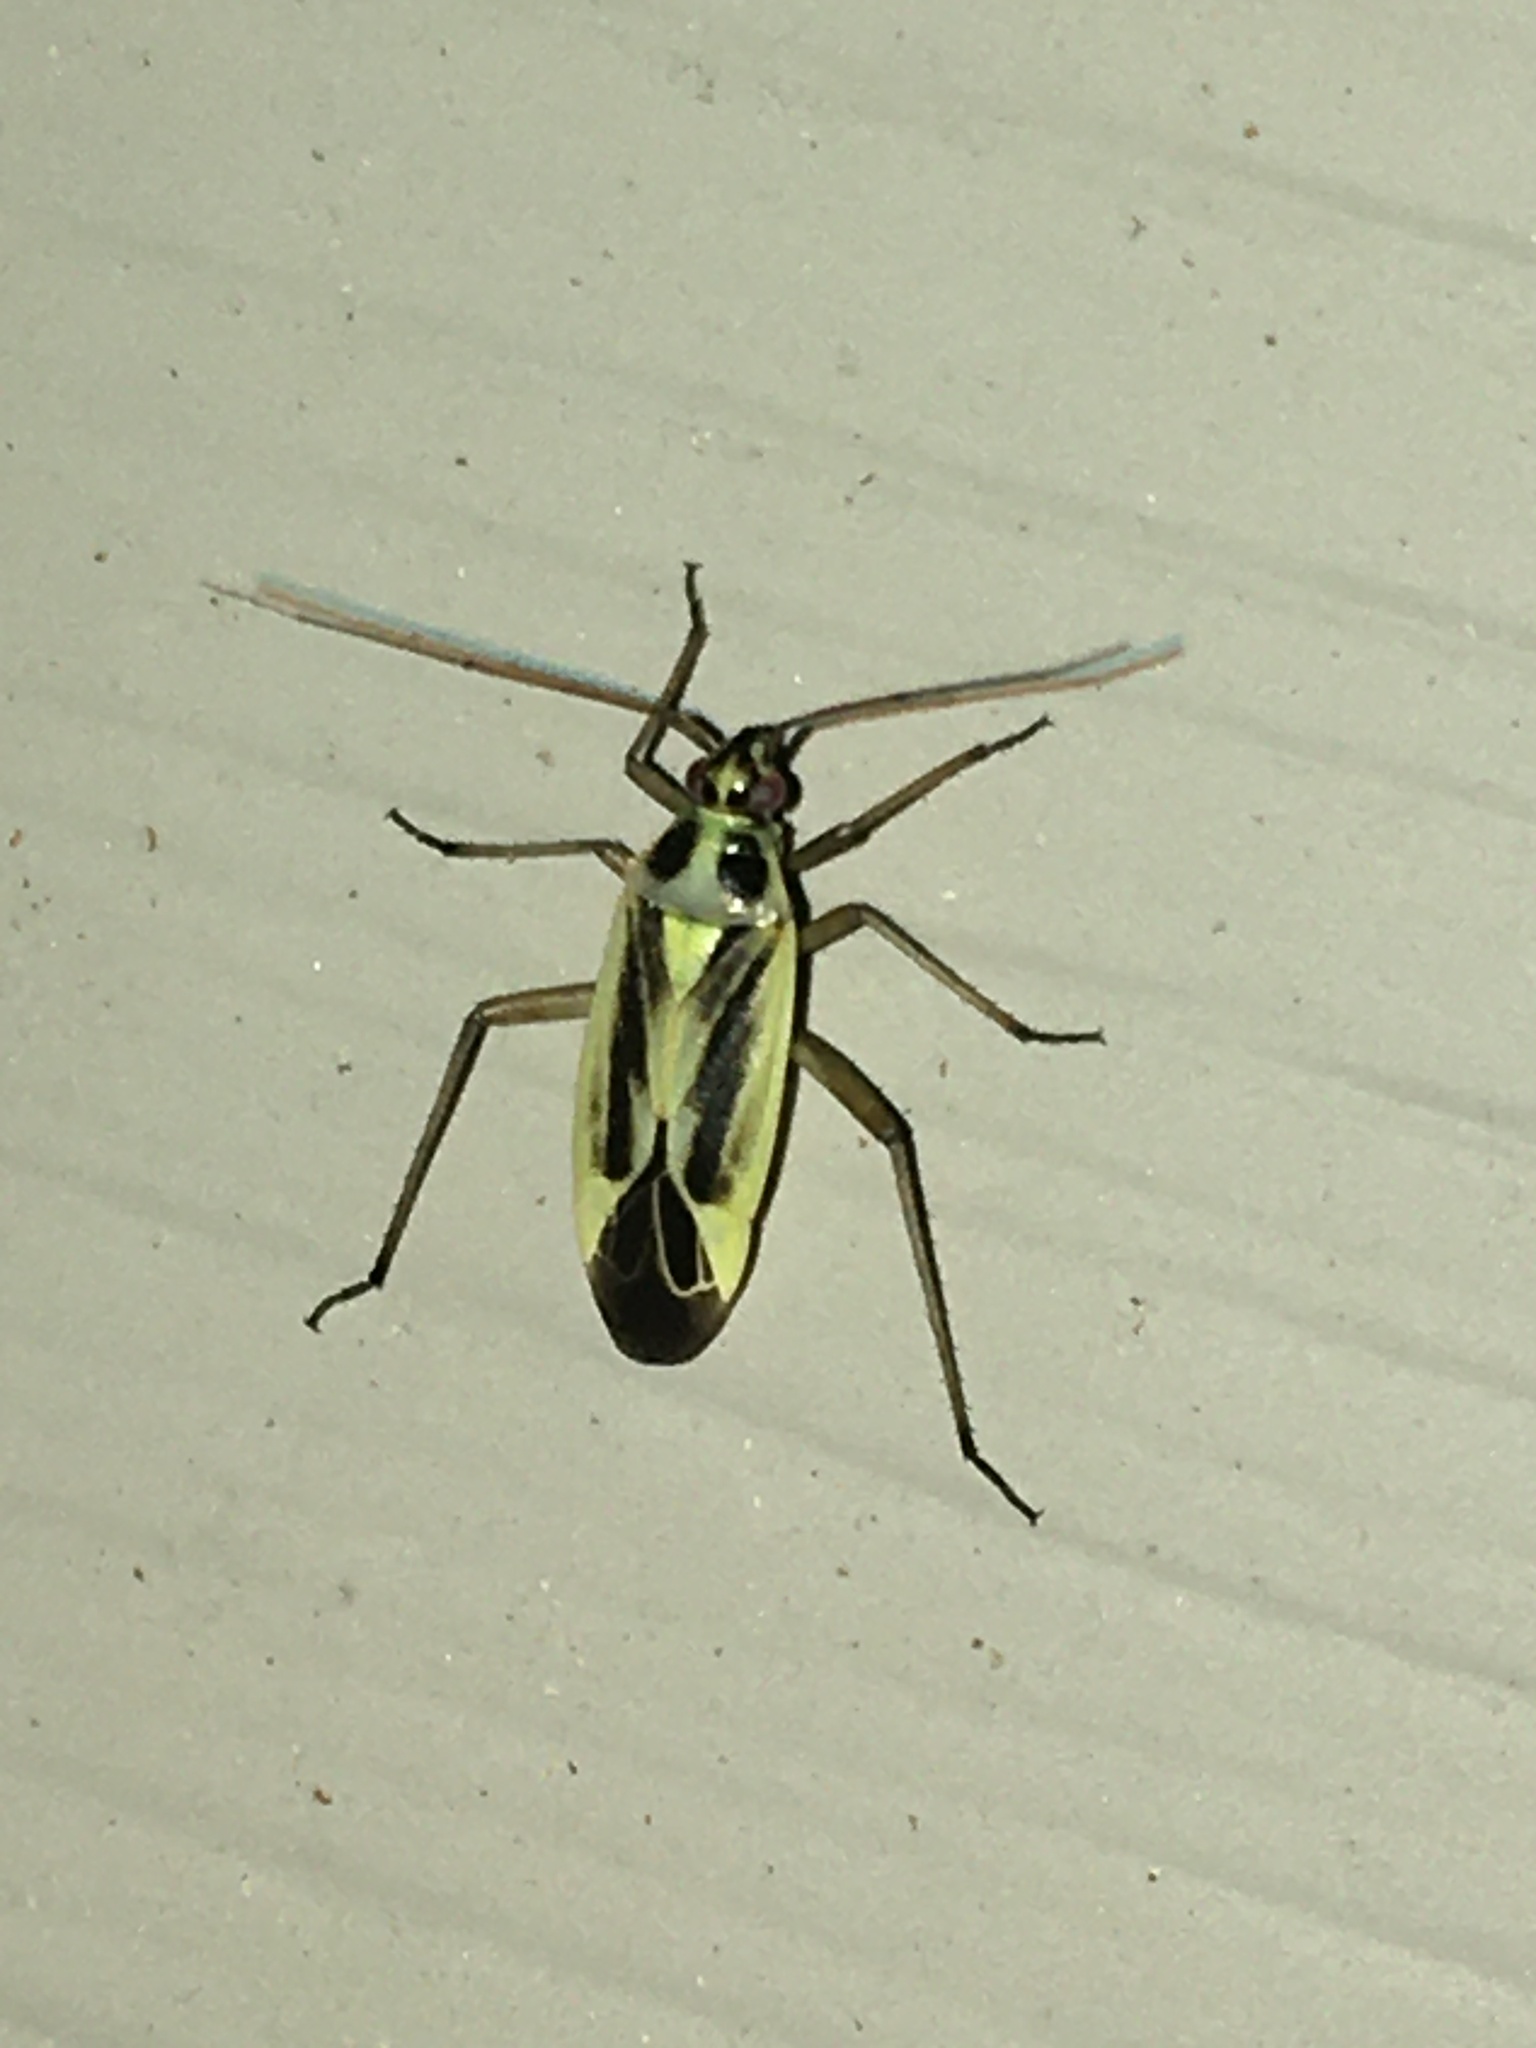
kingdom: Animalia
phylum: Arthropoda
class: Insecta
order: Hemiptera
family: Miridae
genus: Stenotus
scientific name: Stenotus binotatus
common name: Plant bug
